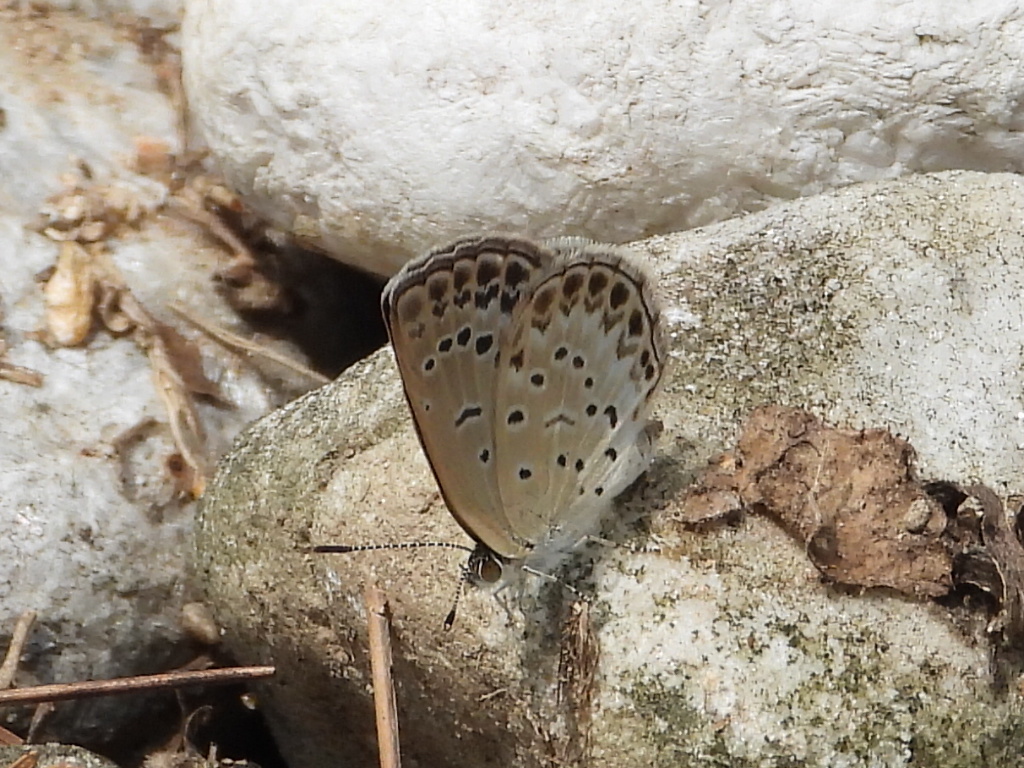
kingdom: Animalia
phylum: Arthropoda
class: Insecta
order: Lepidoptera
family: Lycaenidae
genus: Pseudozizeeria
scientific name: Pseudozizeeria maha
